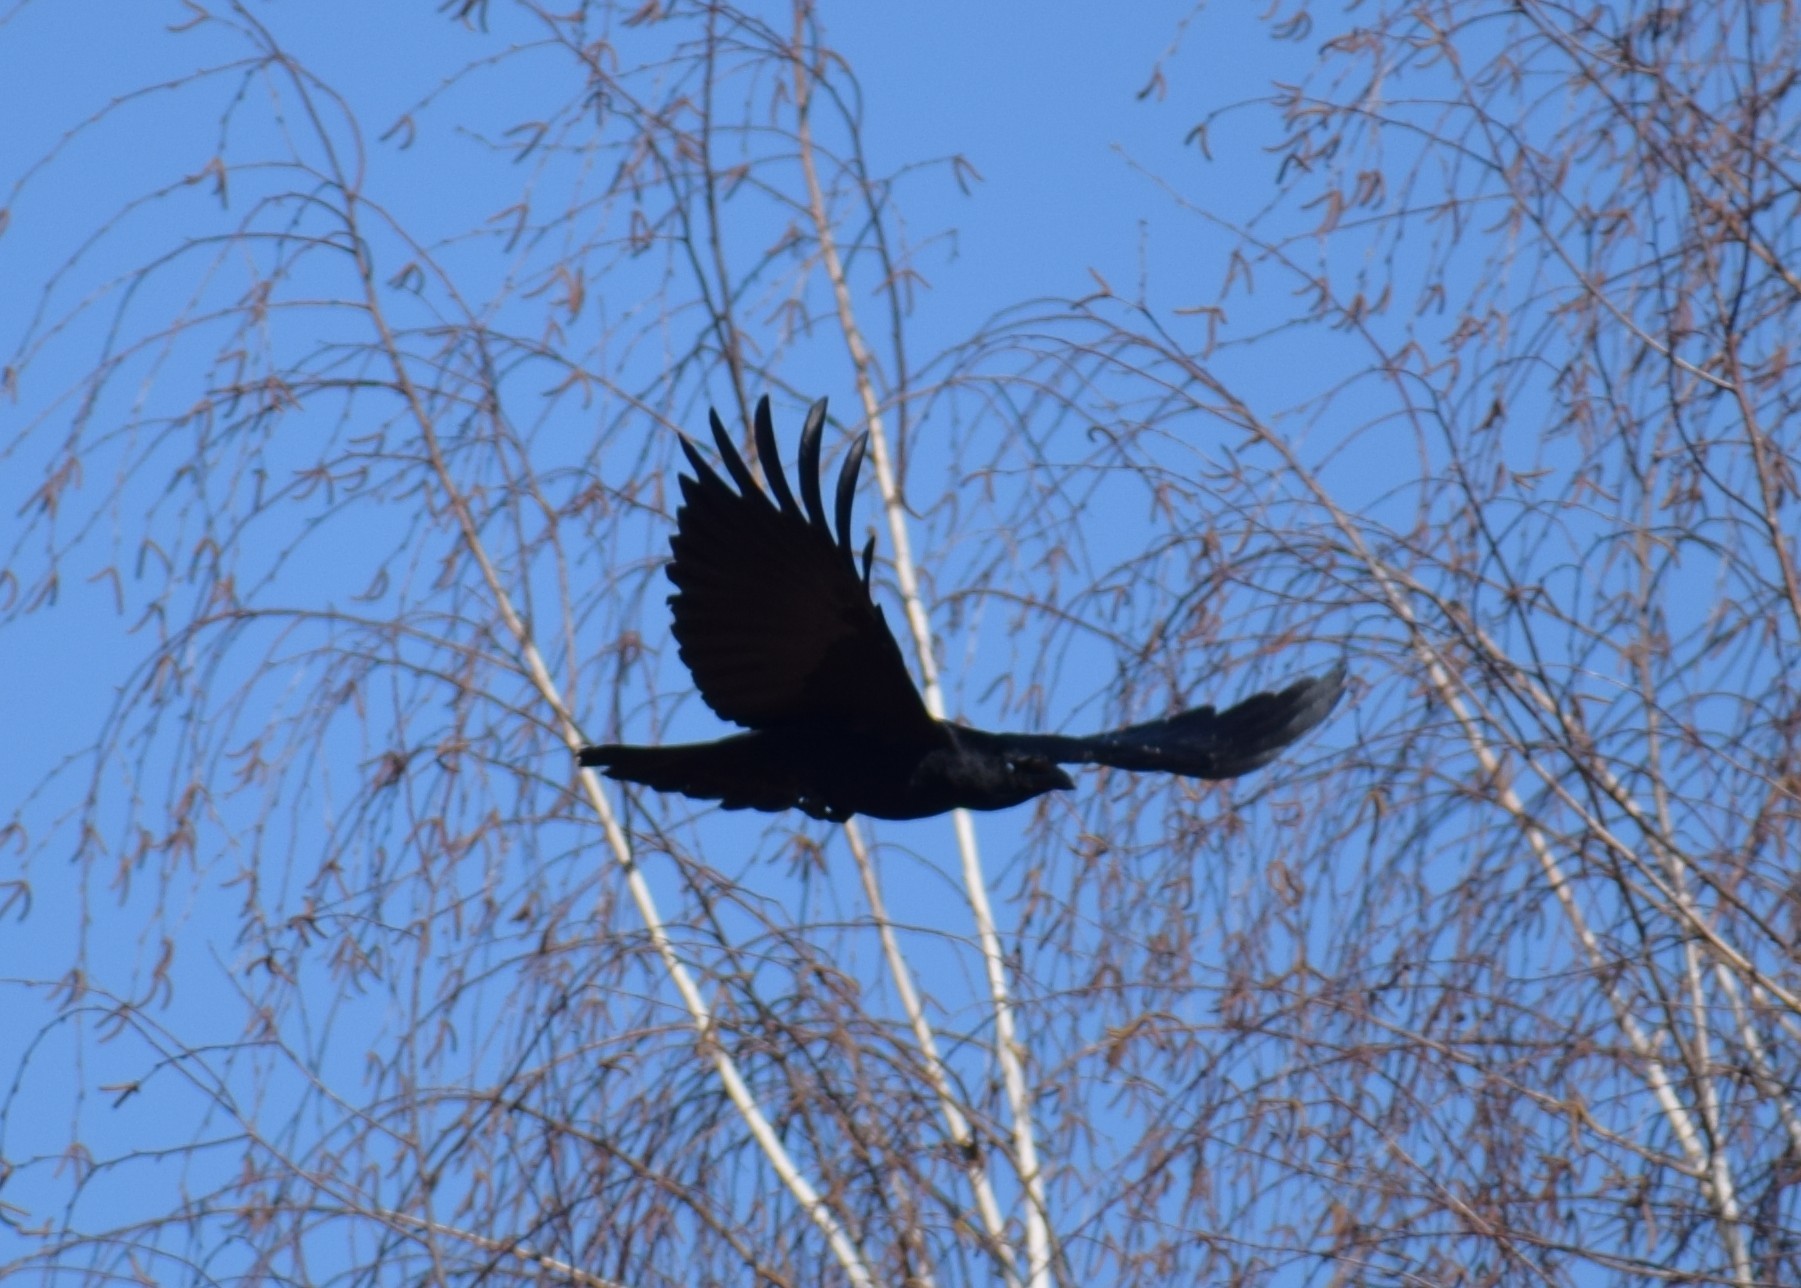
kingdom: Animalia
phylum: Chordata
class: Aves
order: Passeriformes
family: Corvidae
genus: Corvus
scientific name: Corvus corone
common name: Carrion crow
